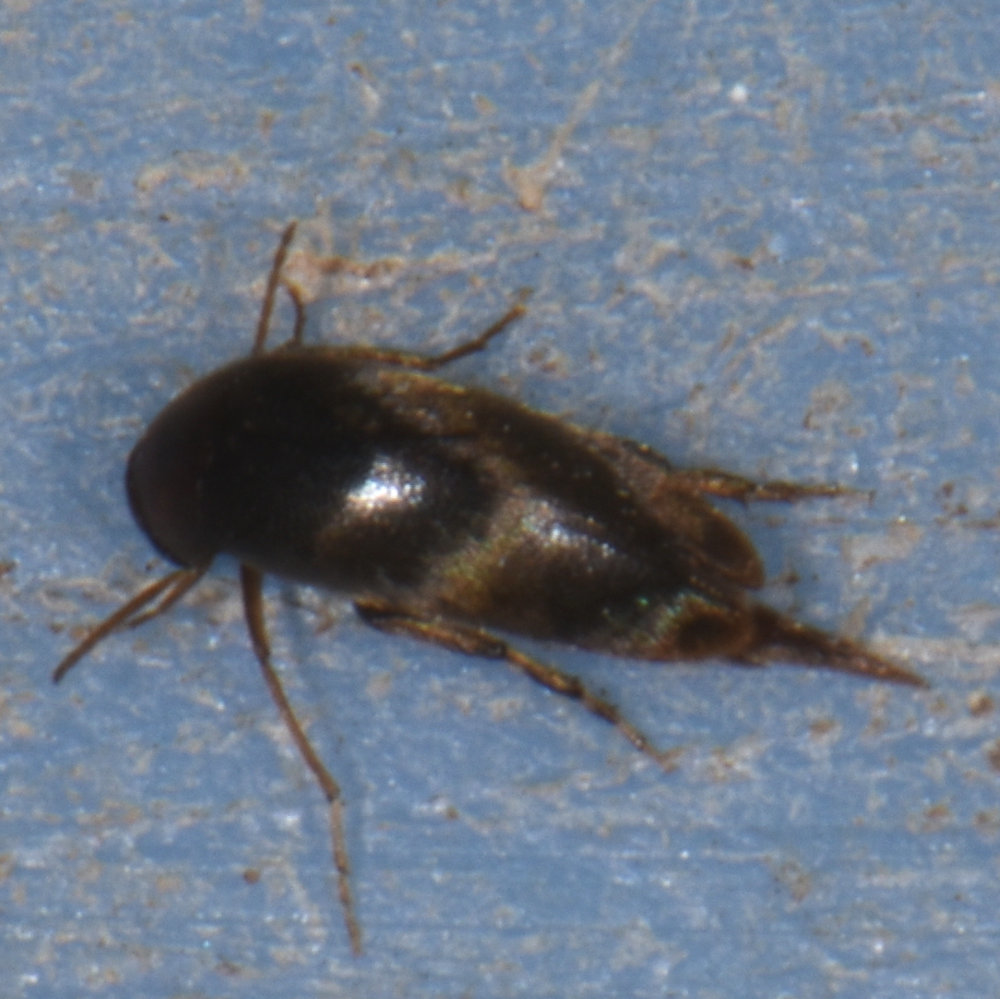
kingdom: Animalia
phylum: Arthropoda
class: Insecta
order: Coleoptera
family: Mordellidae
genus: Glipostenoda
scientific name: Glipostenoda ambusta
